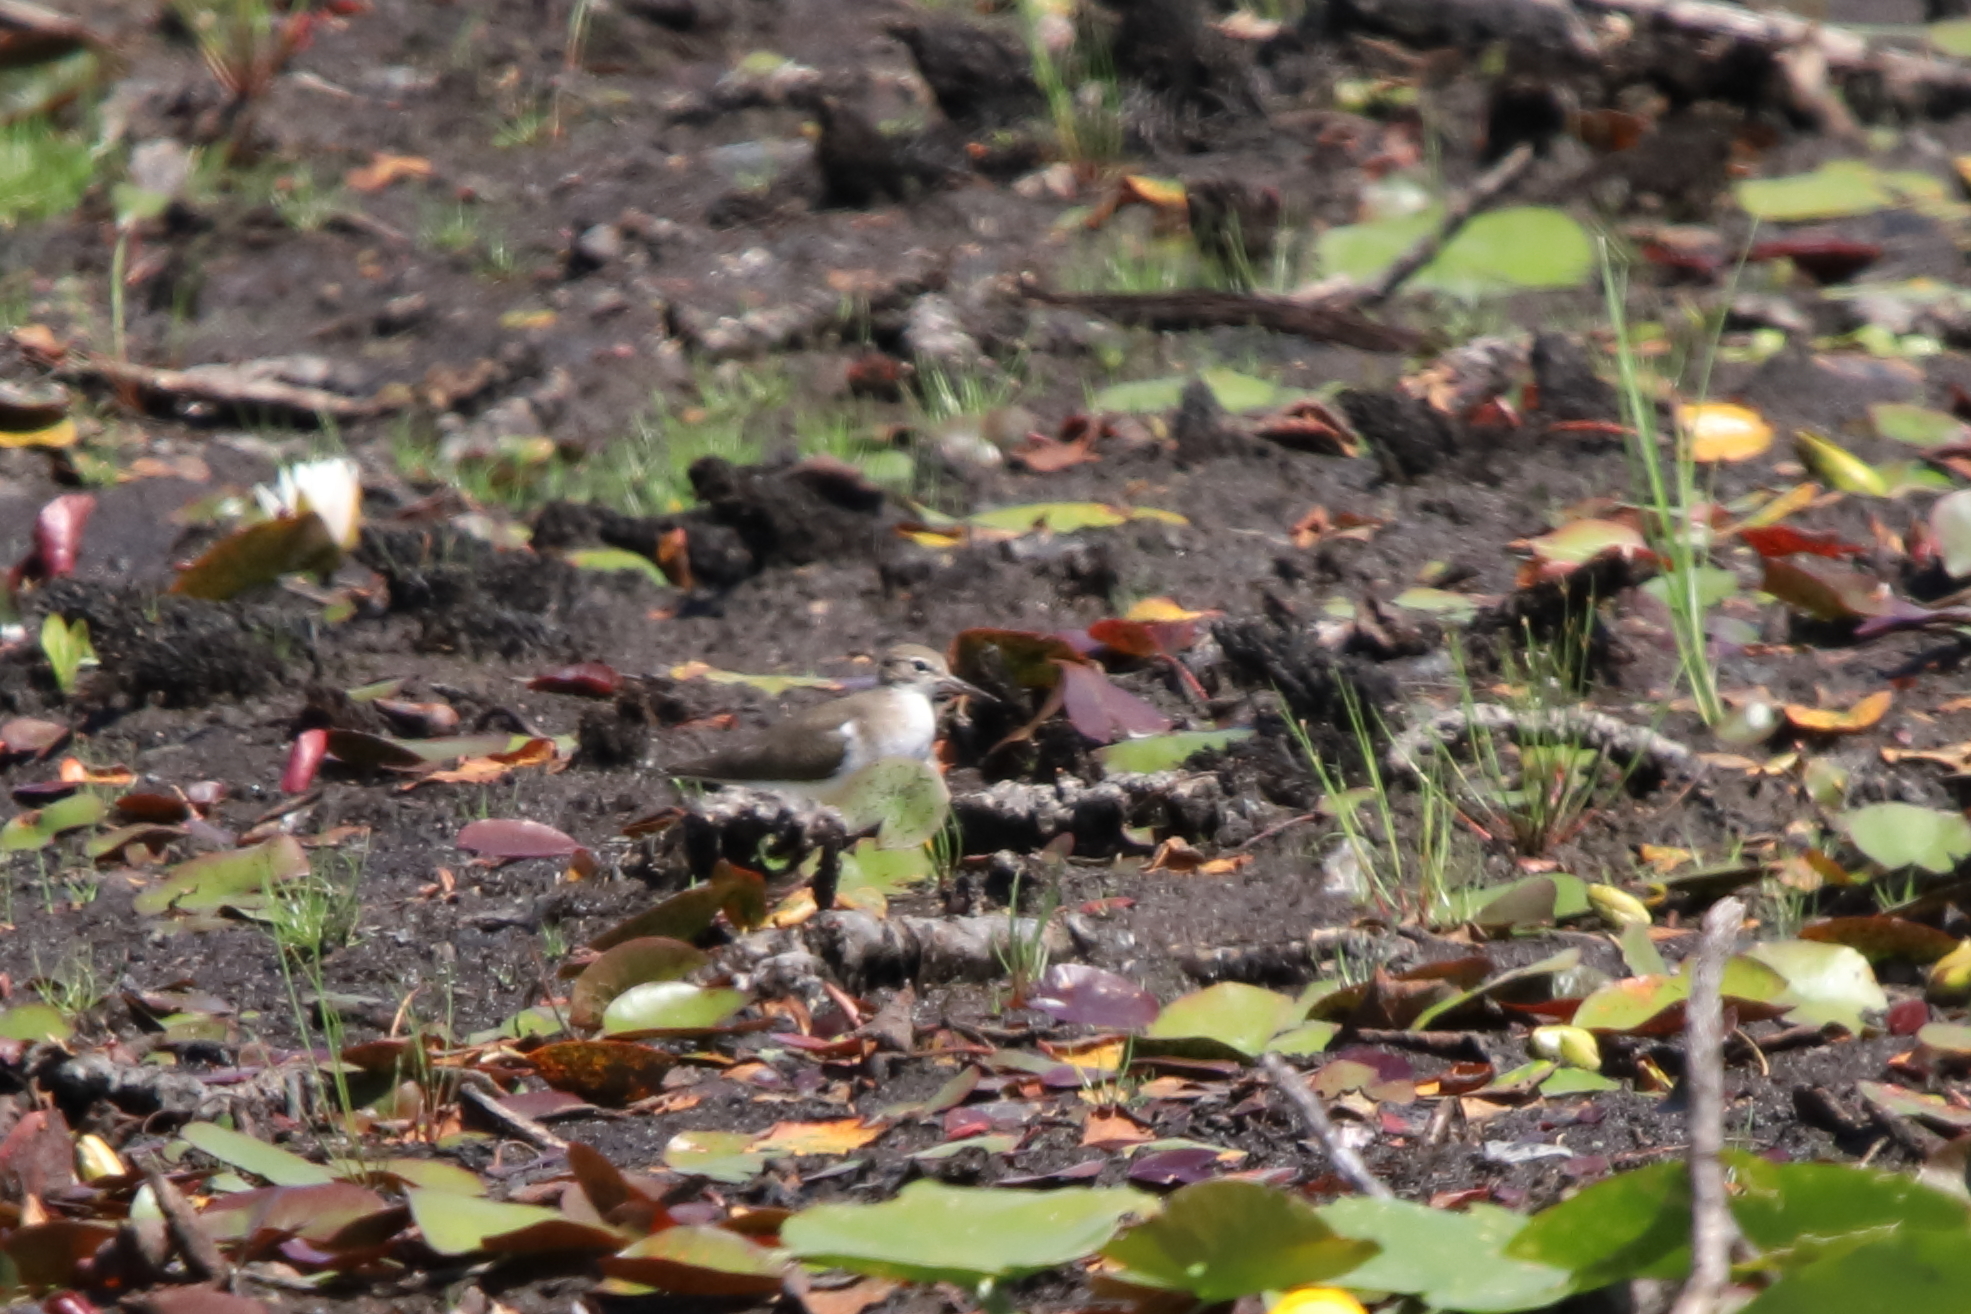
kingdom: Animalia
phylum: Chordata
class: Aves
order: Charadriiformes
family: Scolopacidae
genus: Actitis
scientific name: Actitis macularius
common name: Spotted sandpiper
